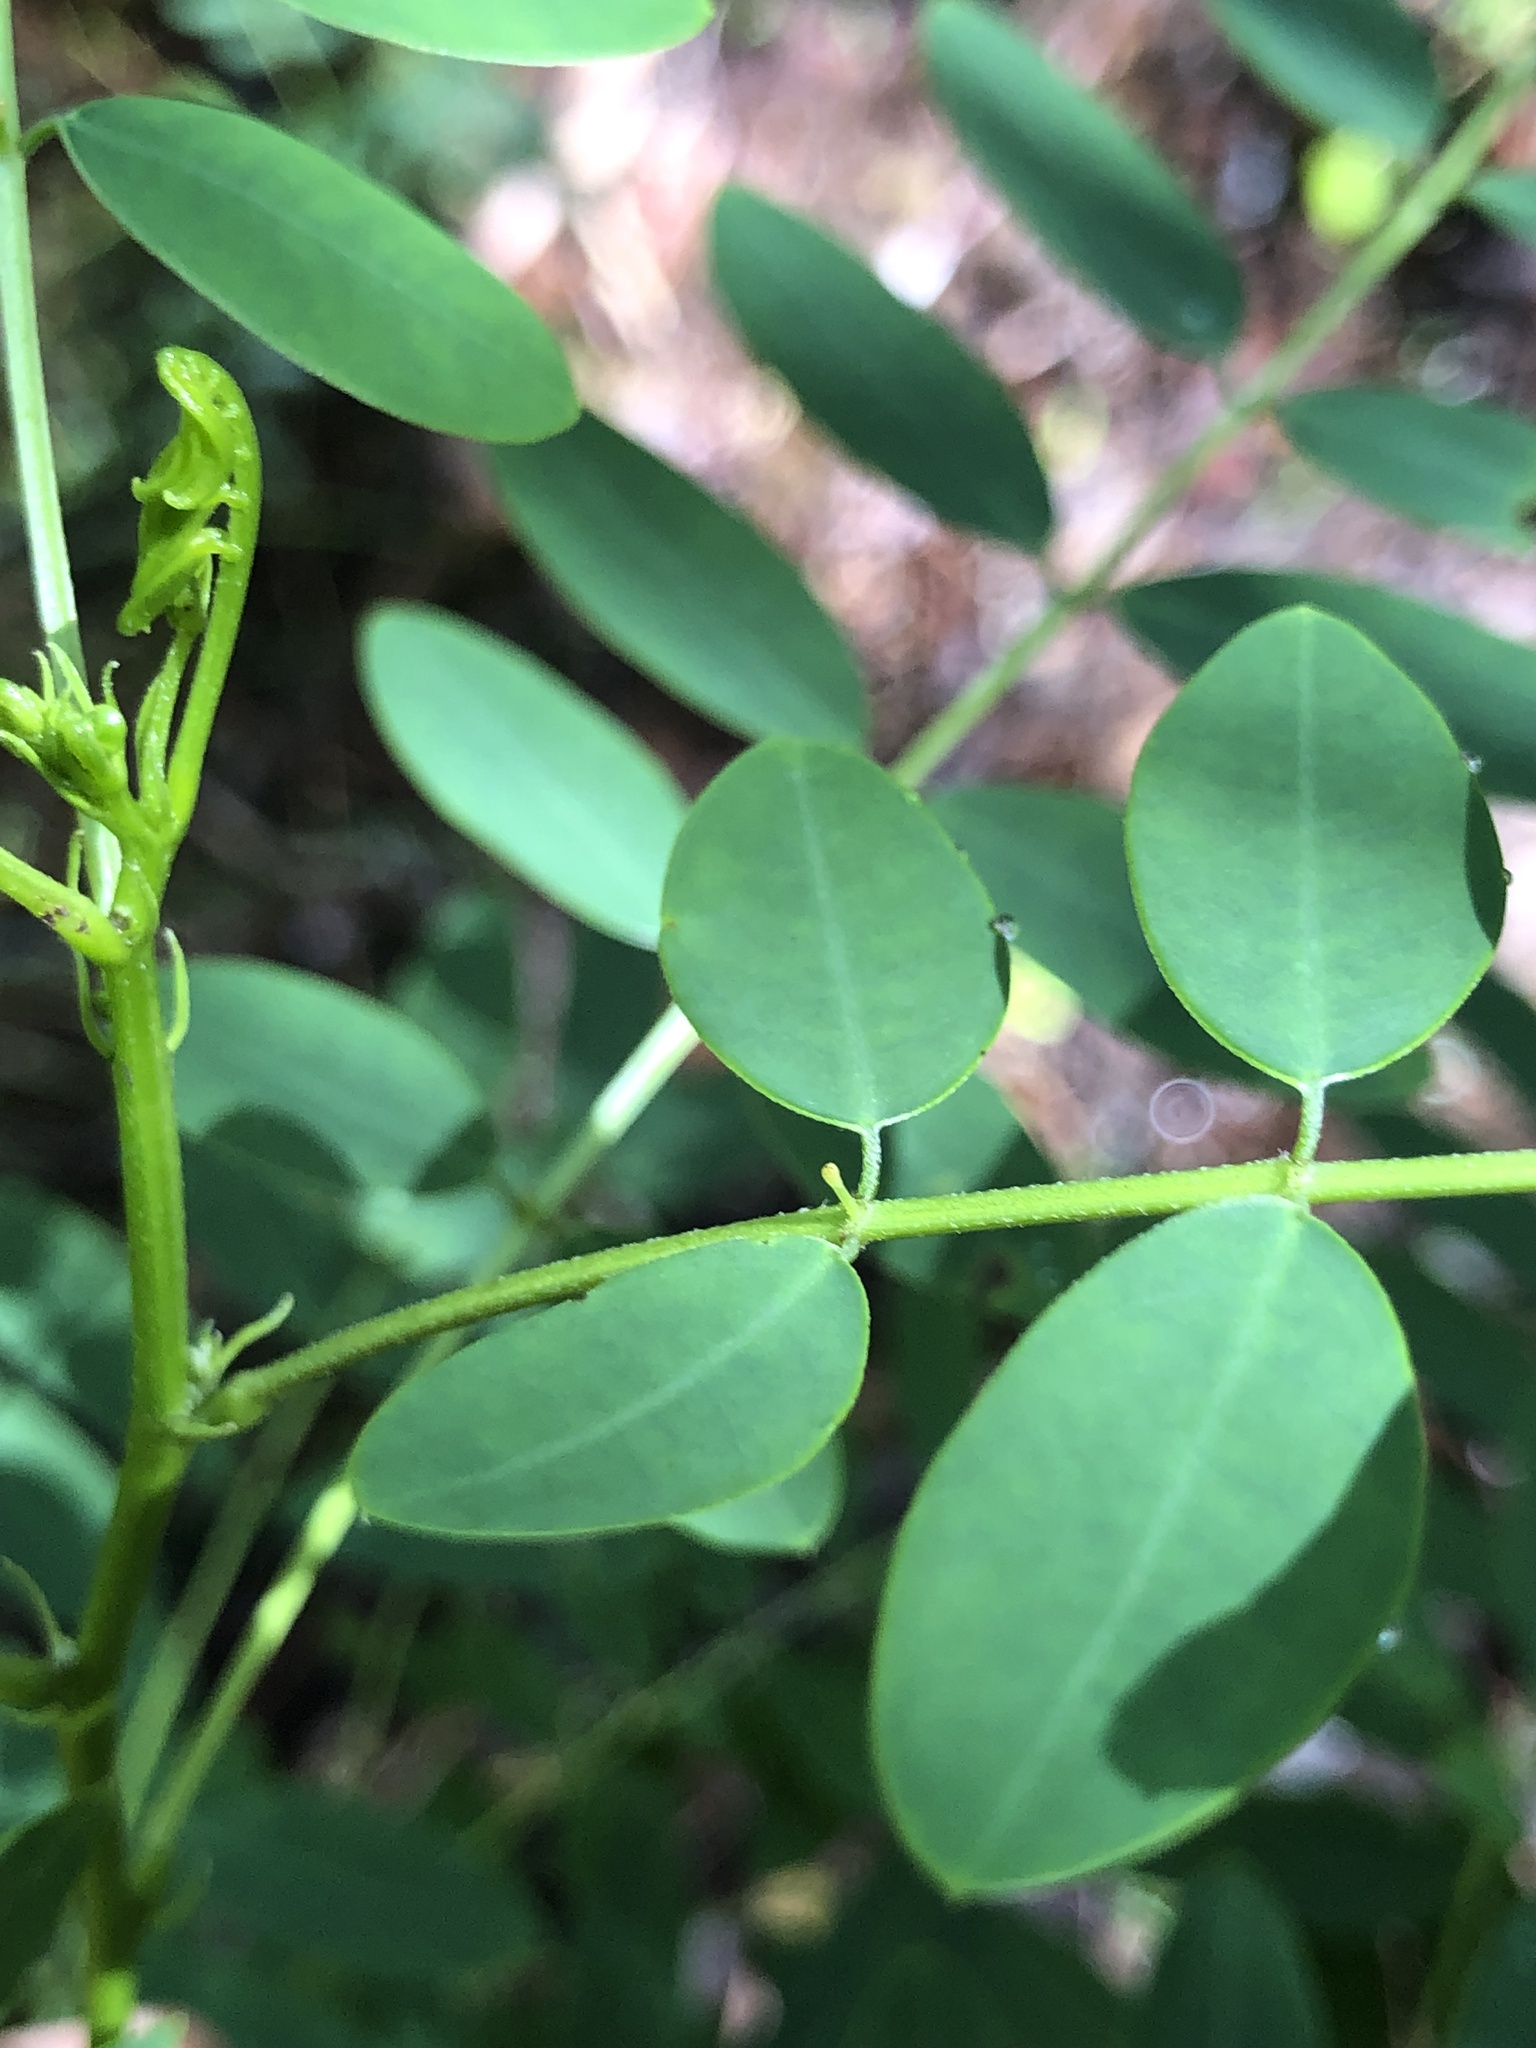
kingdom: Plantae
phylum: Tracheophyta
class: Magnoliopsida
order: Fabales
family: Fabaceae
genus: Senna
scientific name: Senna acclinis
